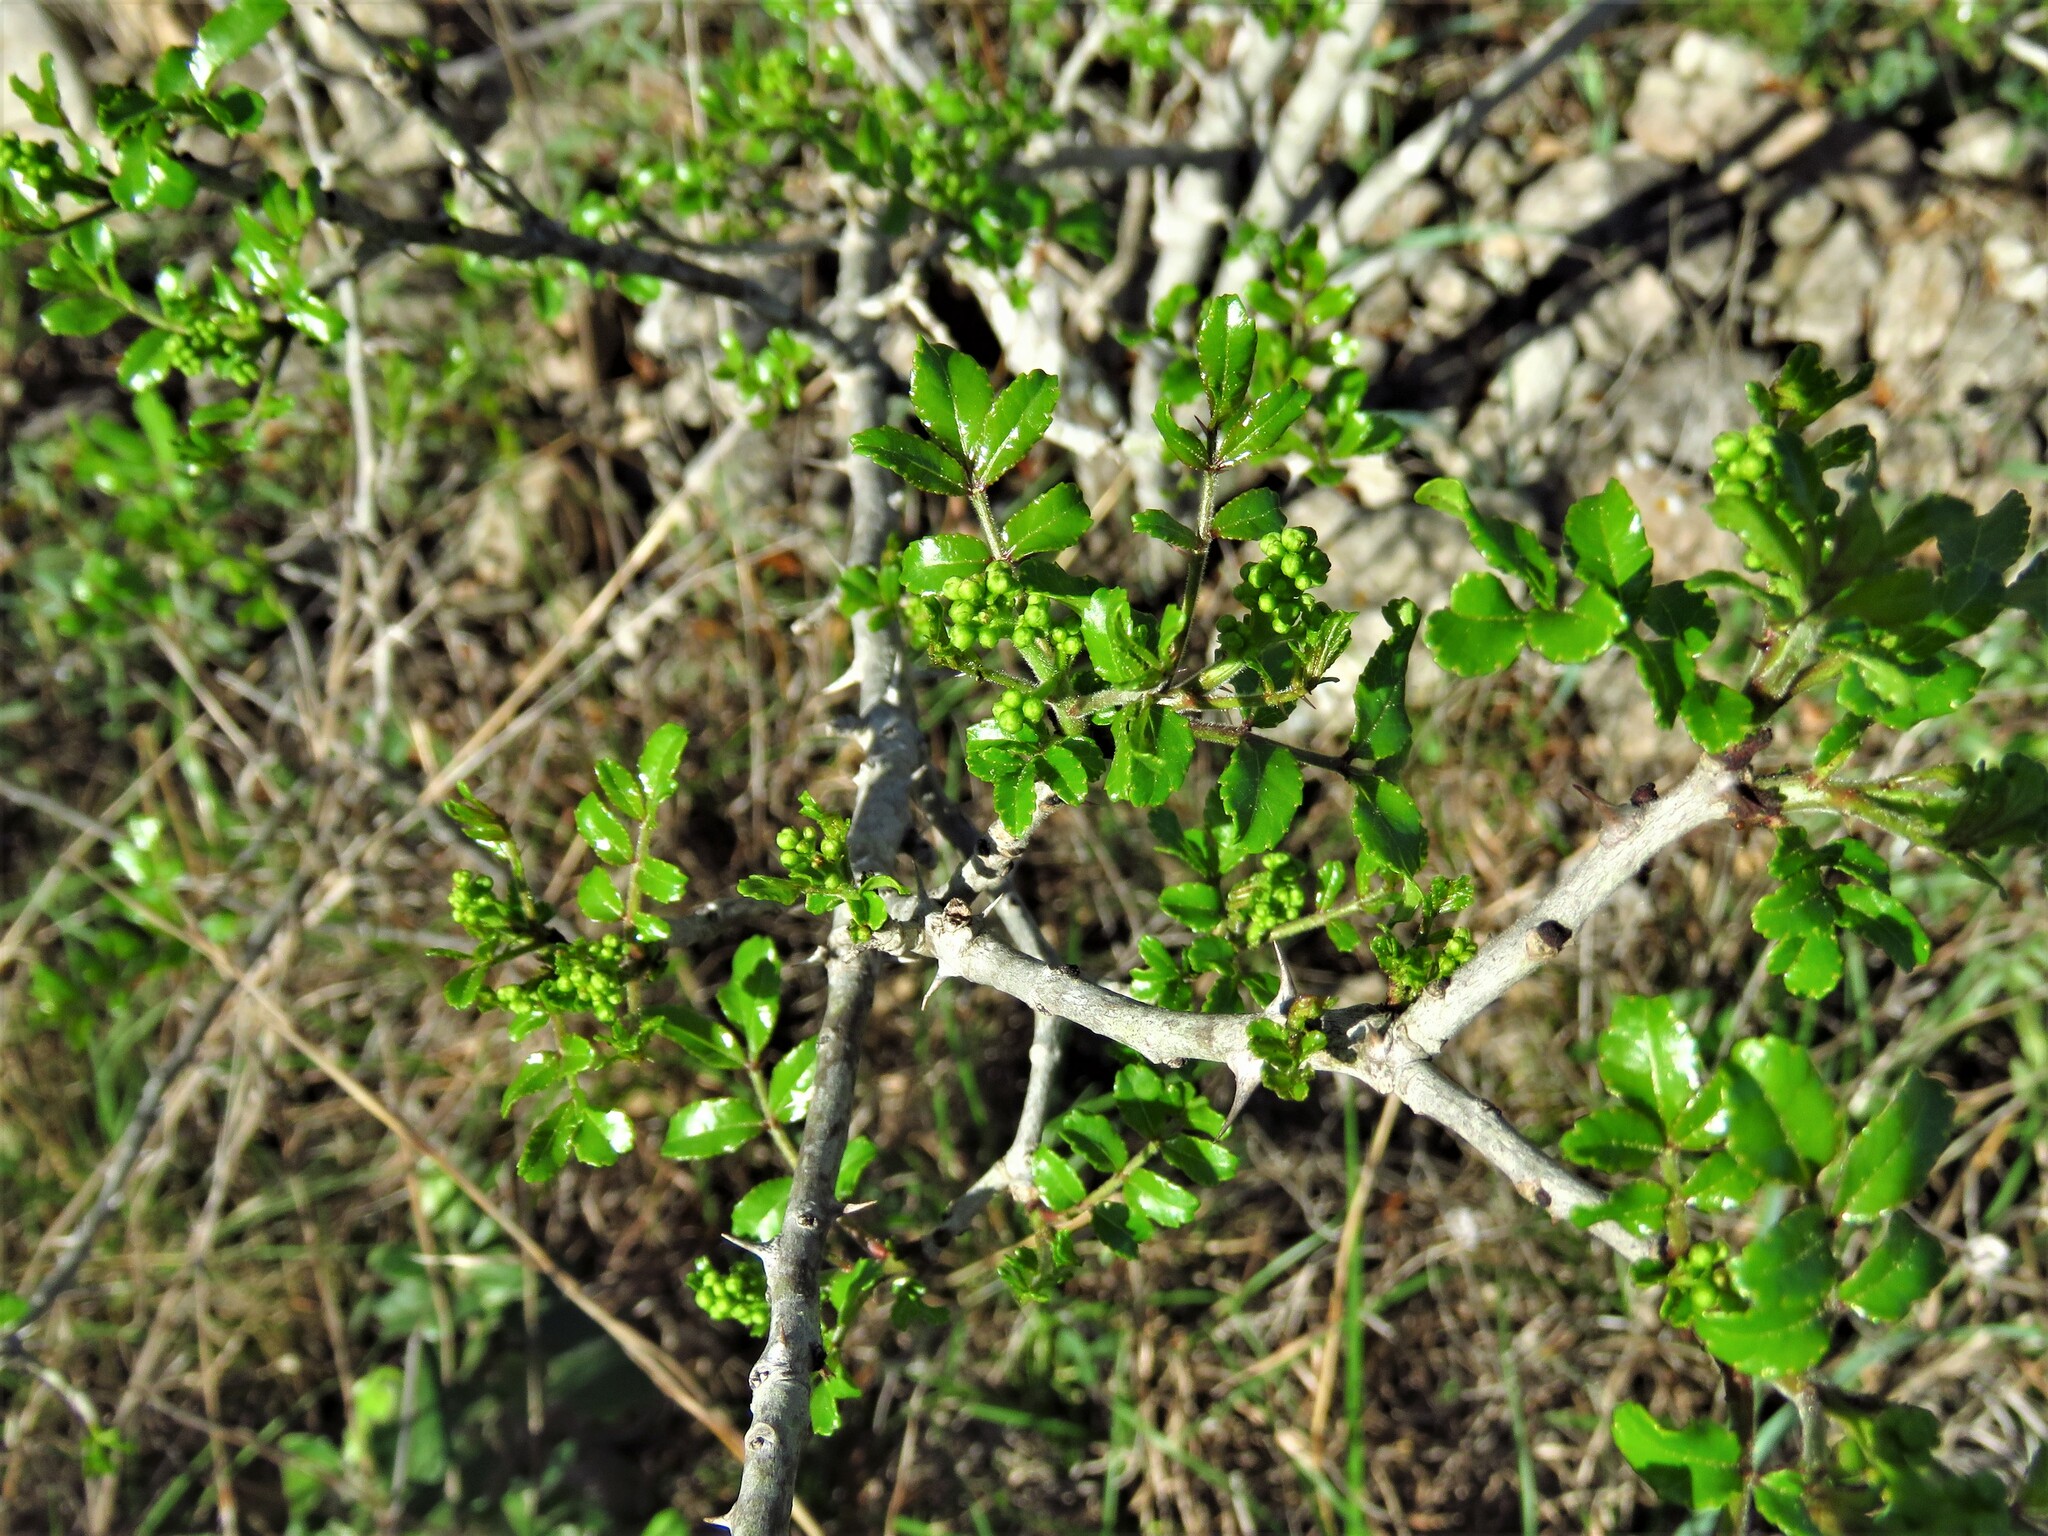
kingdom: Plantae
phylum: Tracheophyta
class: Magnoliopsida
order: Sapindales
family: Rutaceae
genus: Zanthoxylum
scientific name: Zanthoxylum clava-herculis
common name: Hercules'-club
